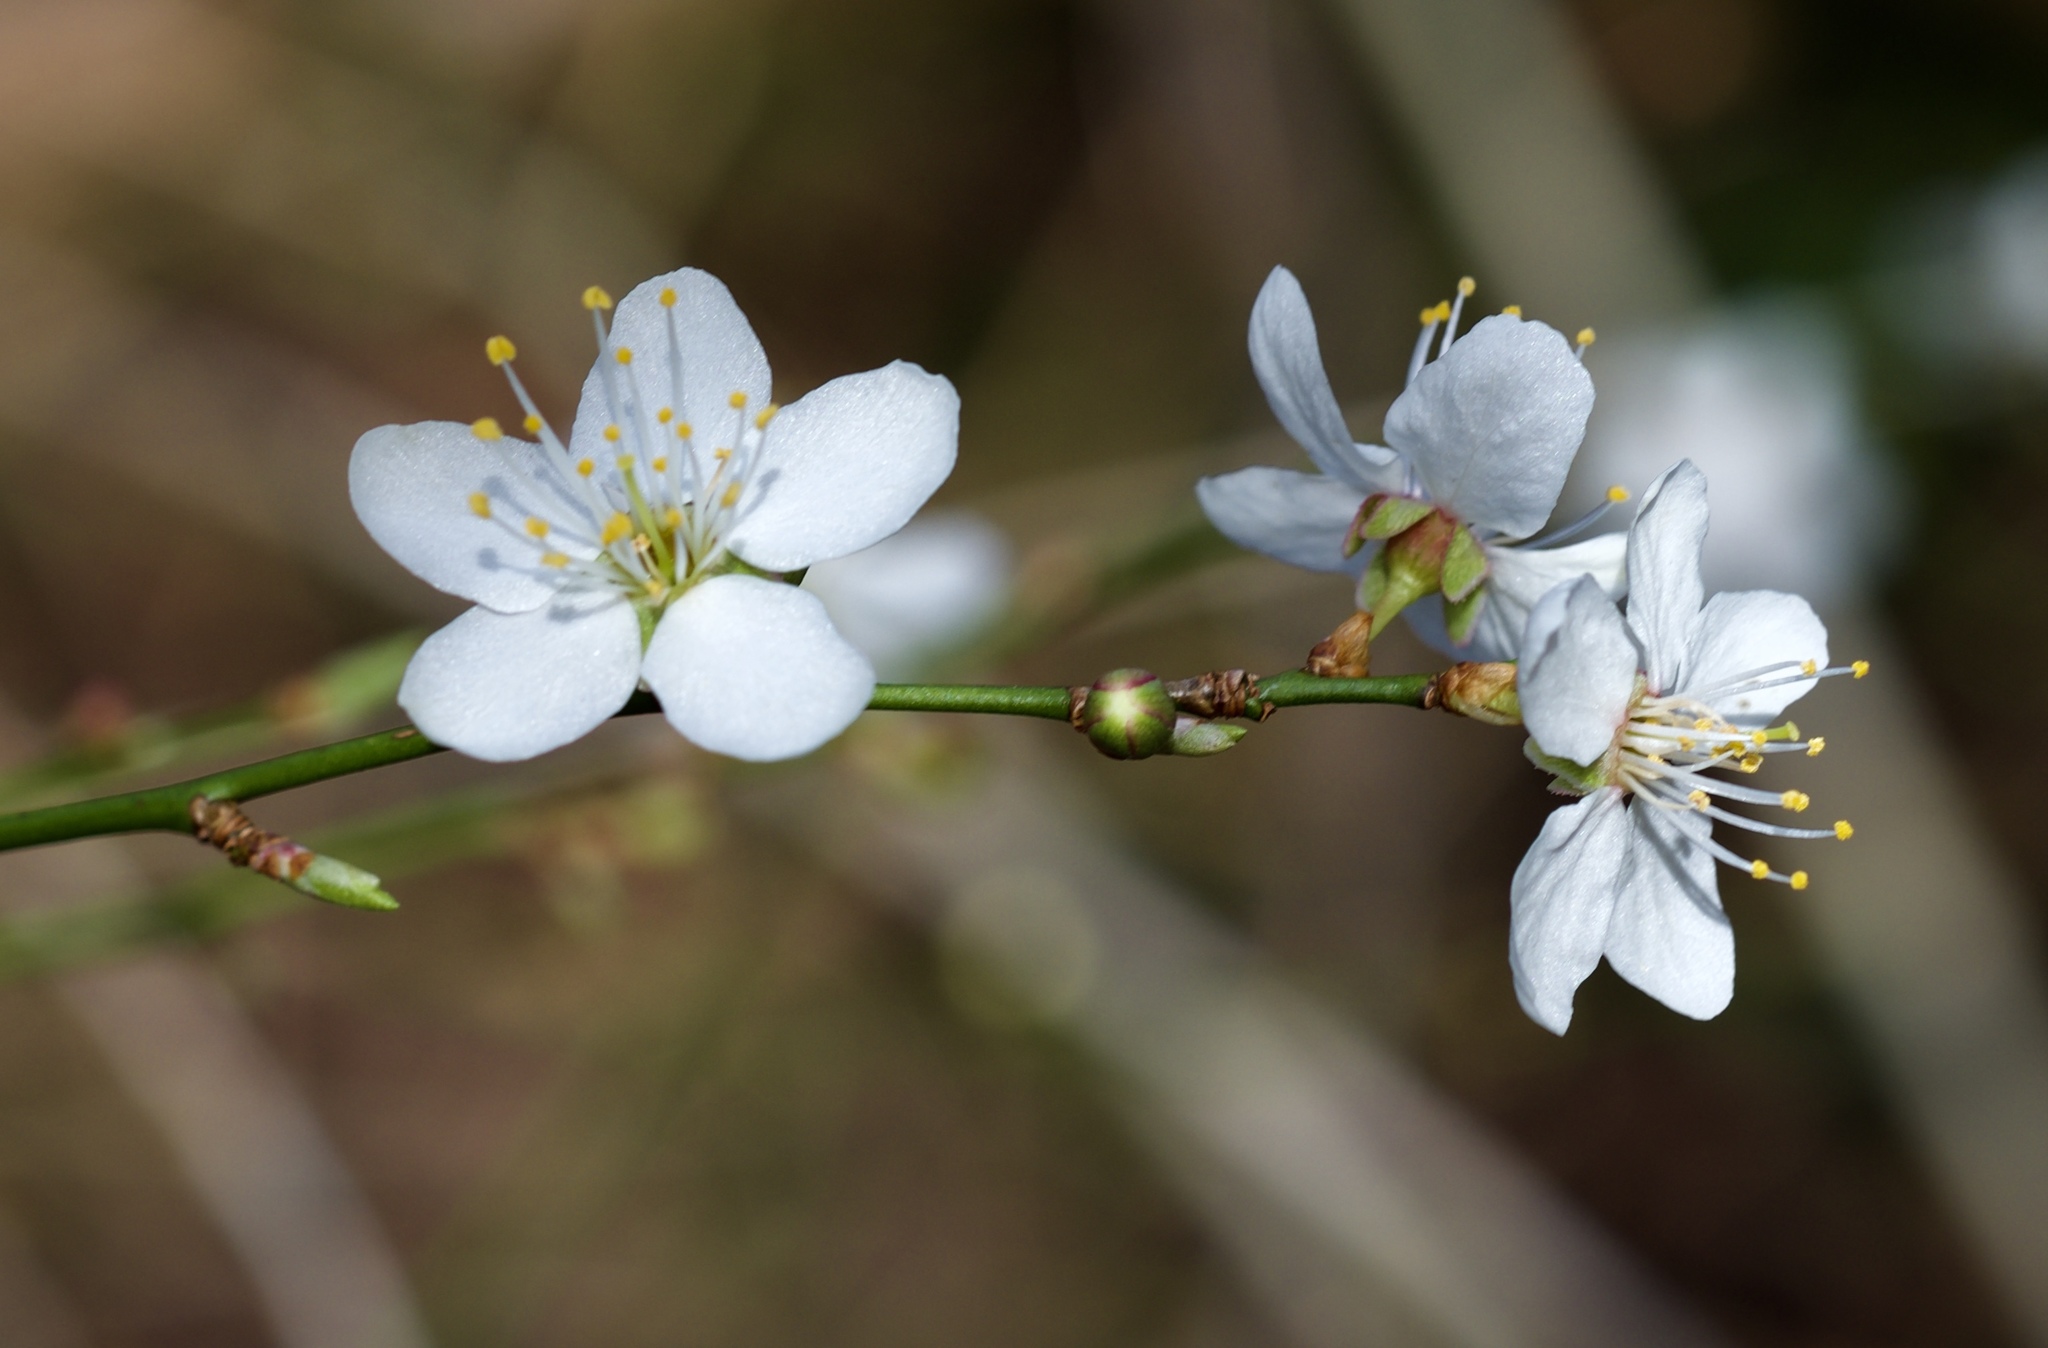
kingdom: Plantae
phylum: Tracheophyta
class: Magnoliopsida
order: Rosales
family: Rosaceae
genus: Prunus
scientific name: Prunus cerasifera
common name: Cherry plum
